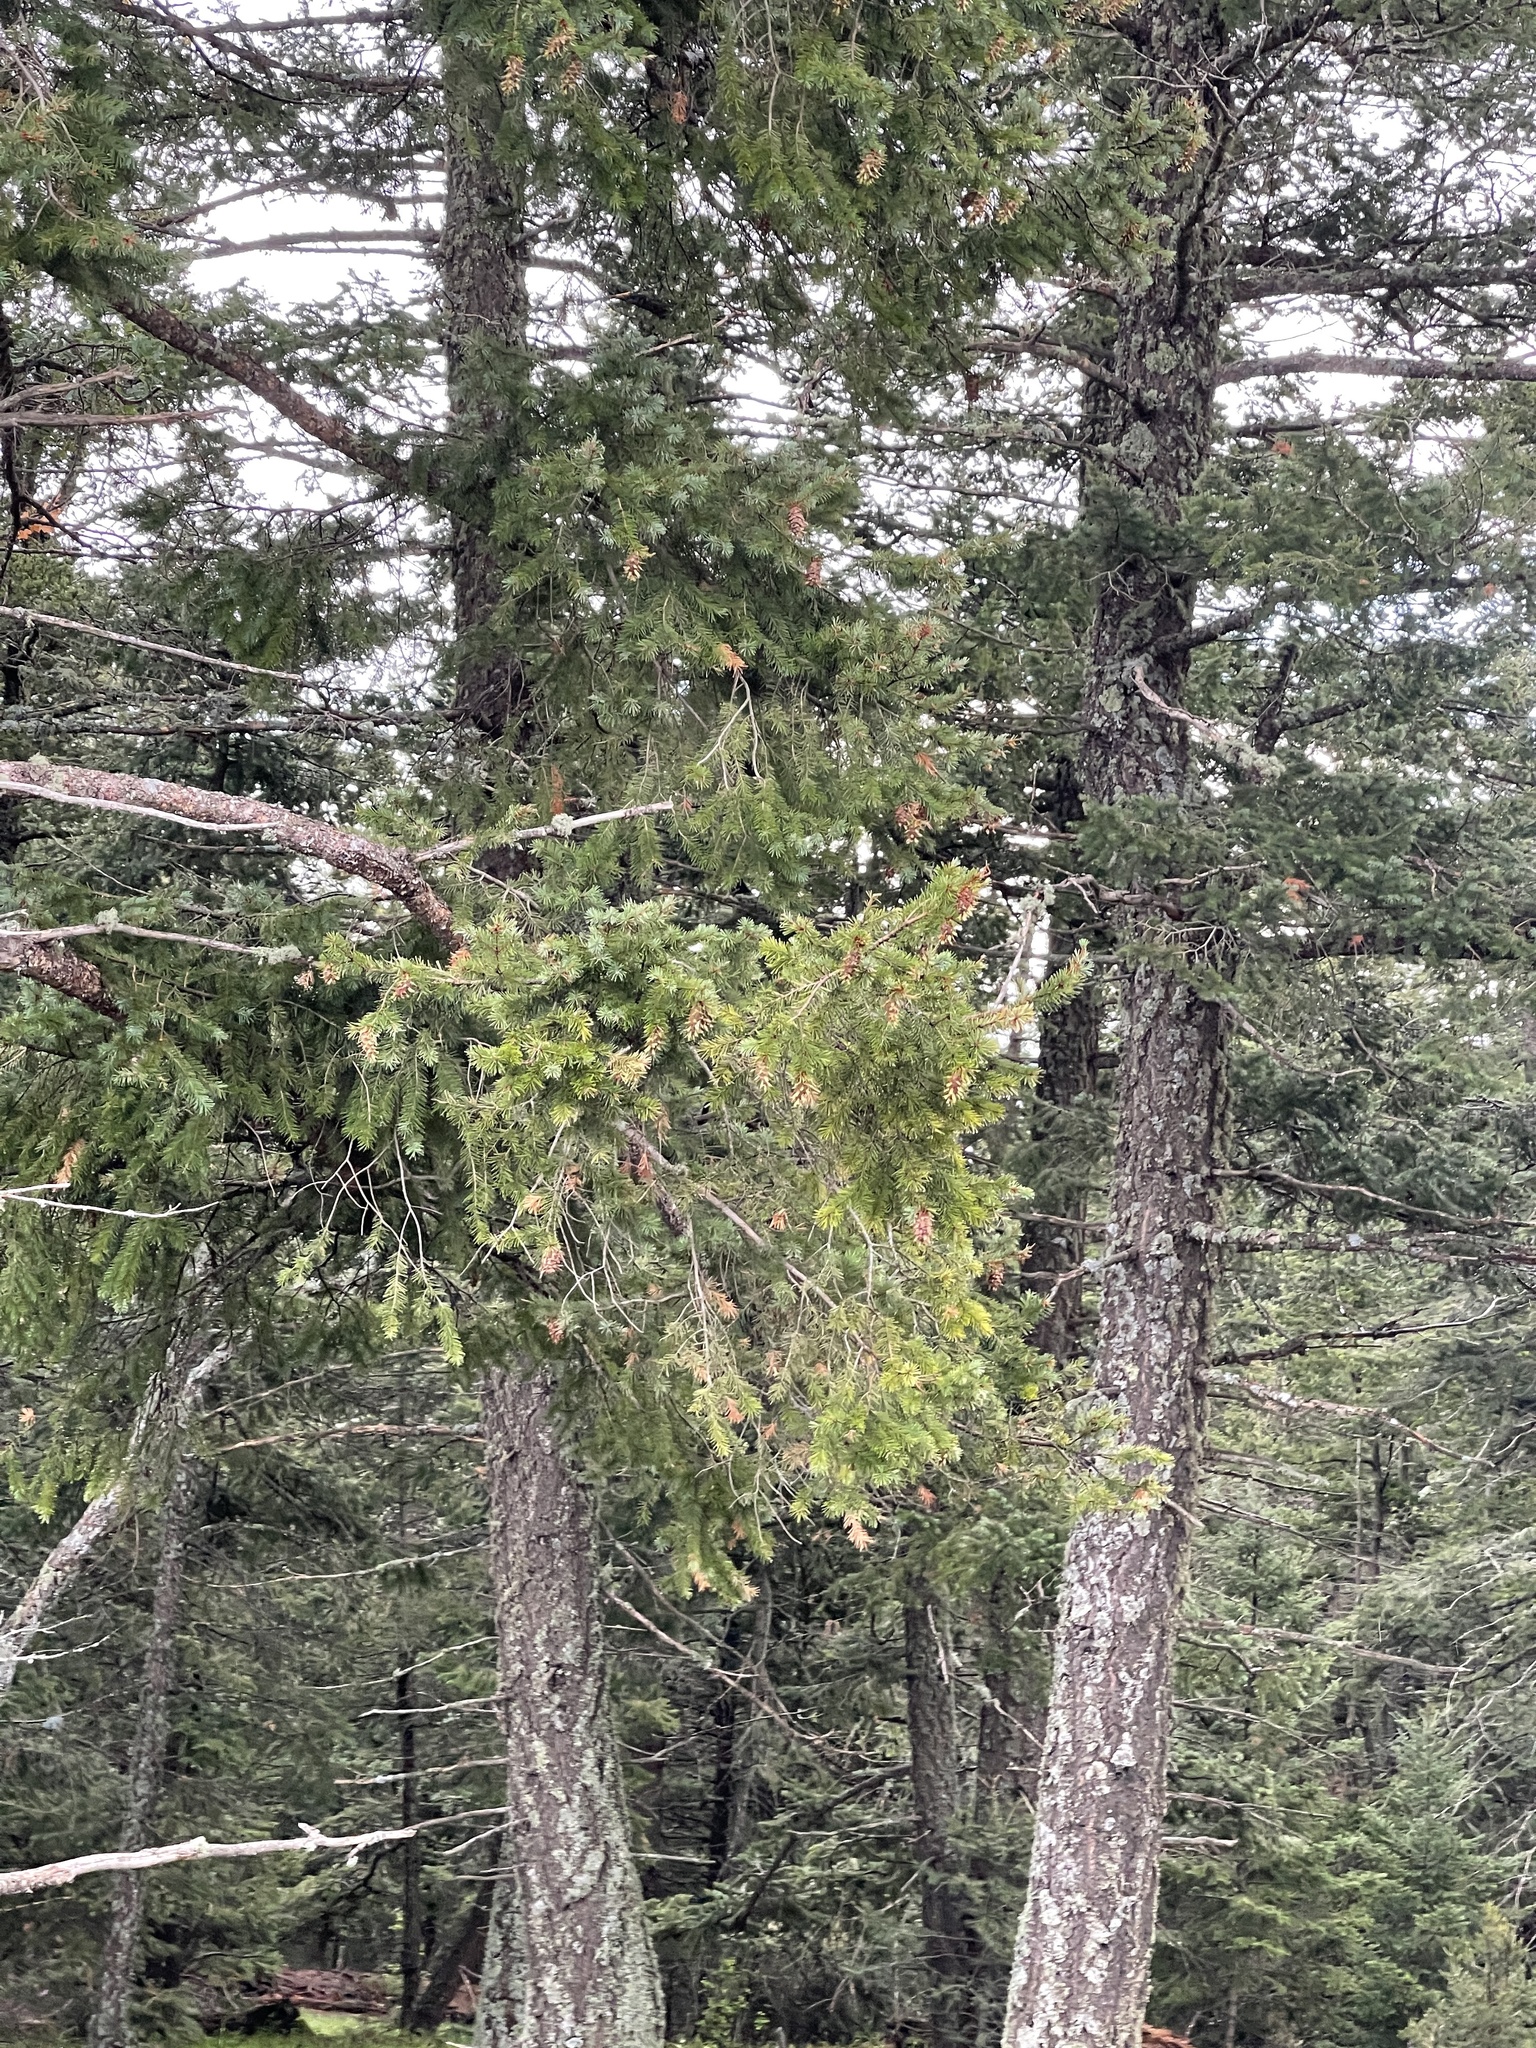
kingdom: Plantae
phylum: Tracheophyta
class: Pinopsida
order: Pinales
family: Pinaceae
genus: Pseudotsuga
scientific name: Pseudotsuga menziesii
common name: Douglas fir
